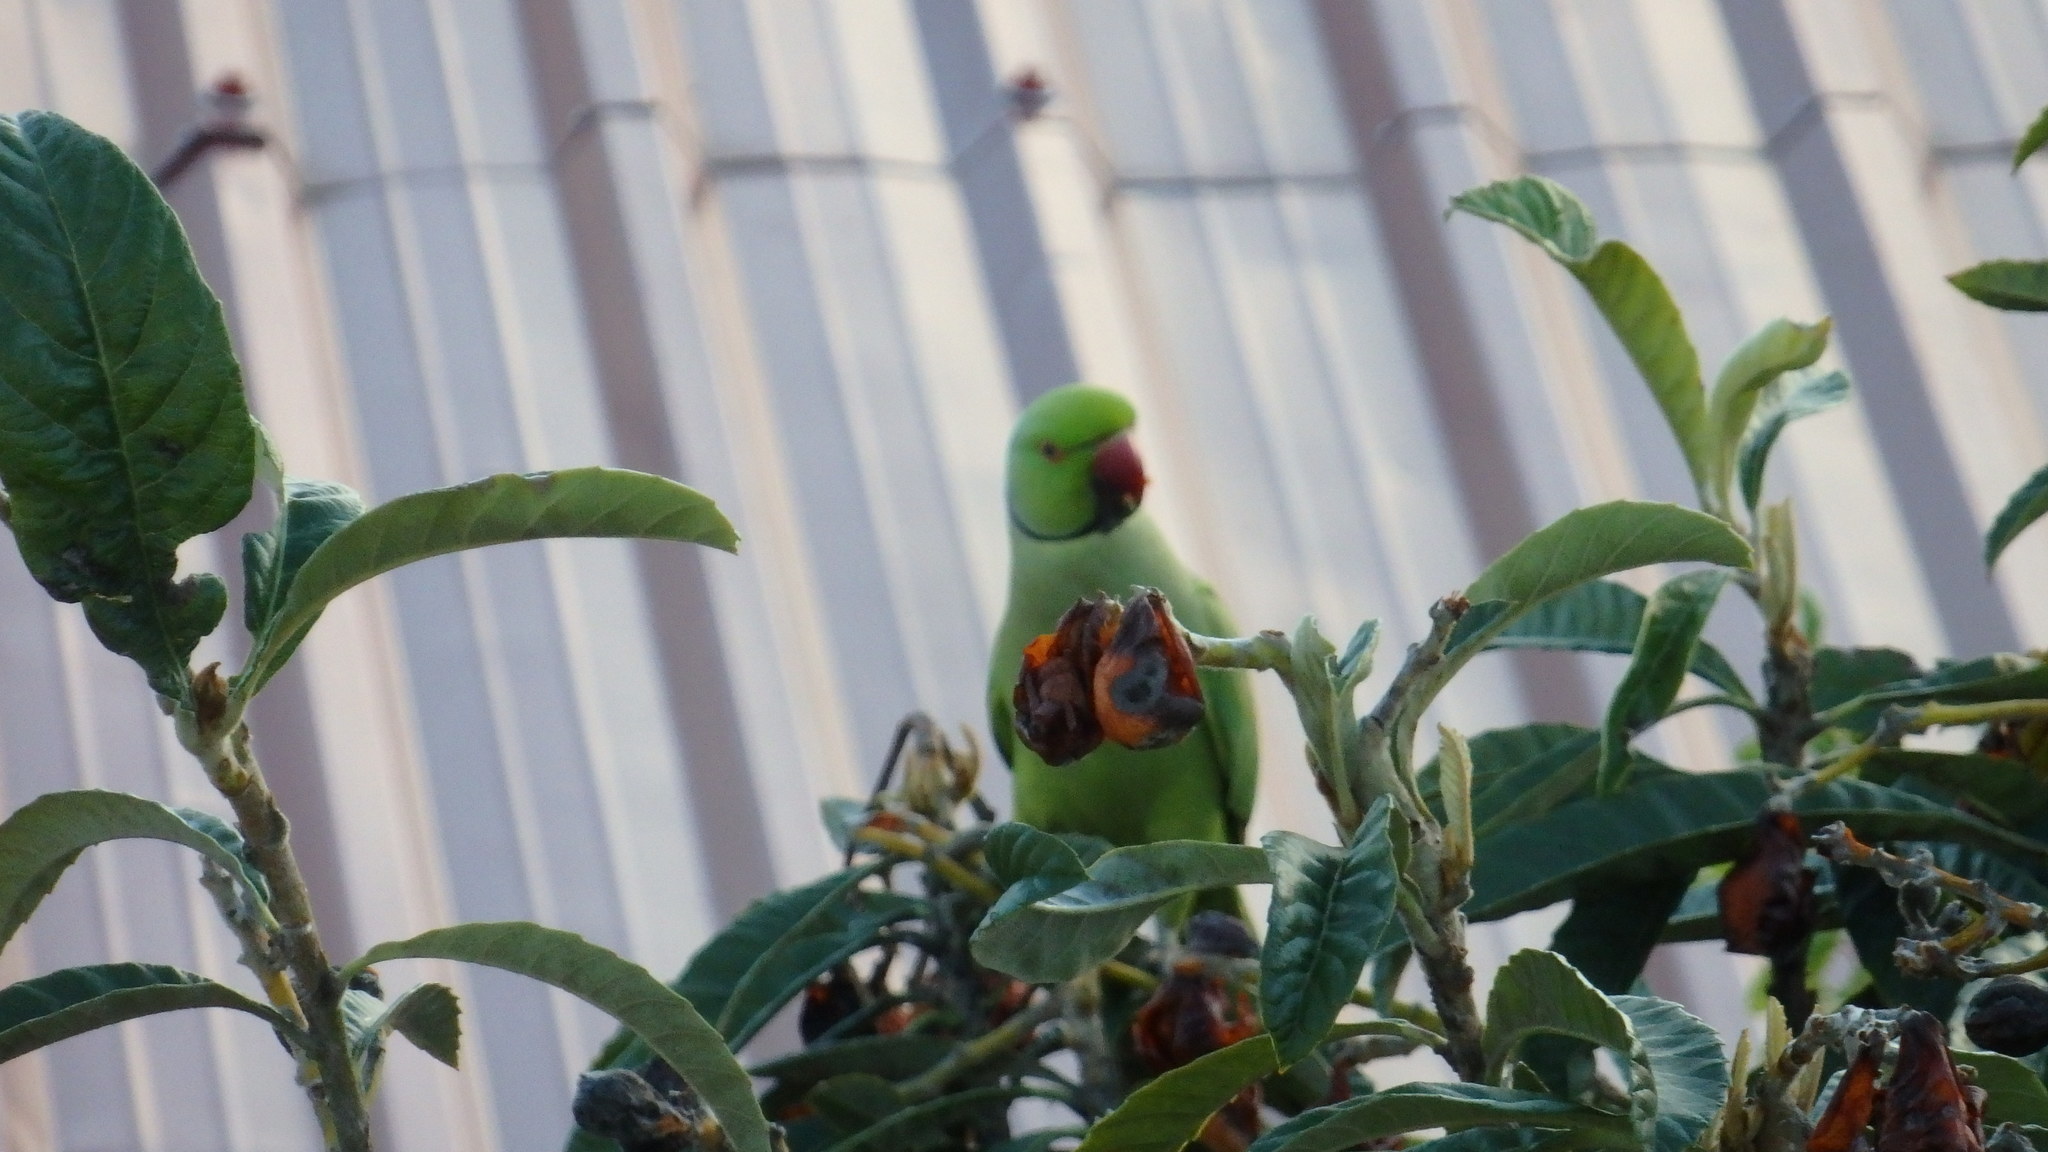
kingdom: Animalia
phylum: Chordata
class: Aves
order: Psittaciformes
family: Psittacidae
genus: Psittacula
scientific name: Psittacula krameri
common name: Rose-ringed parakeet
